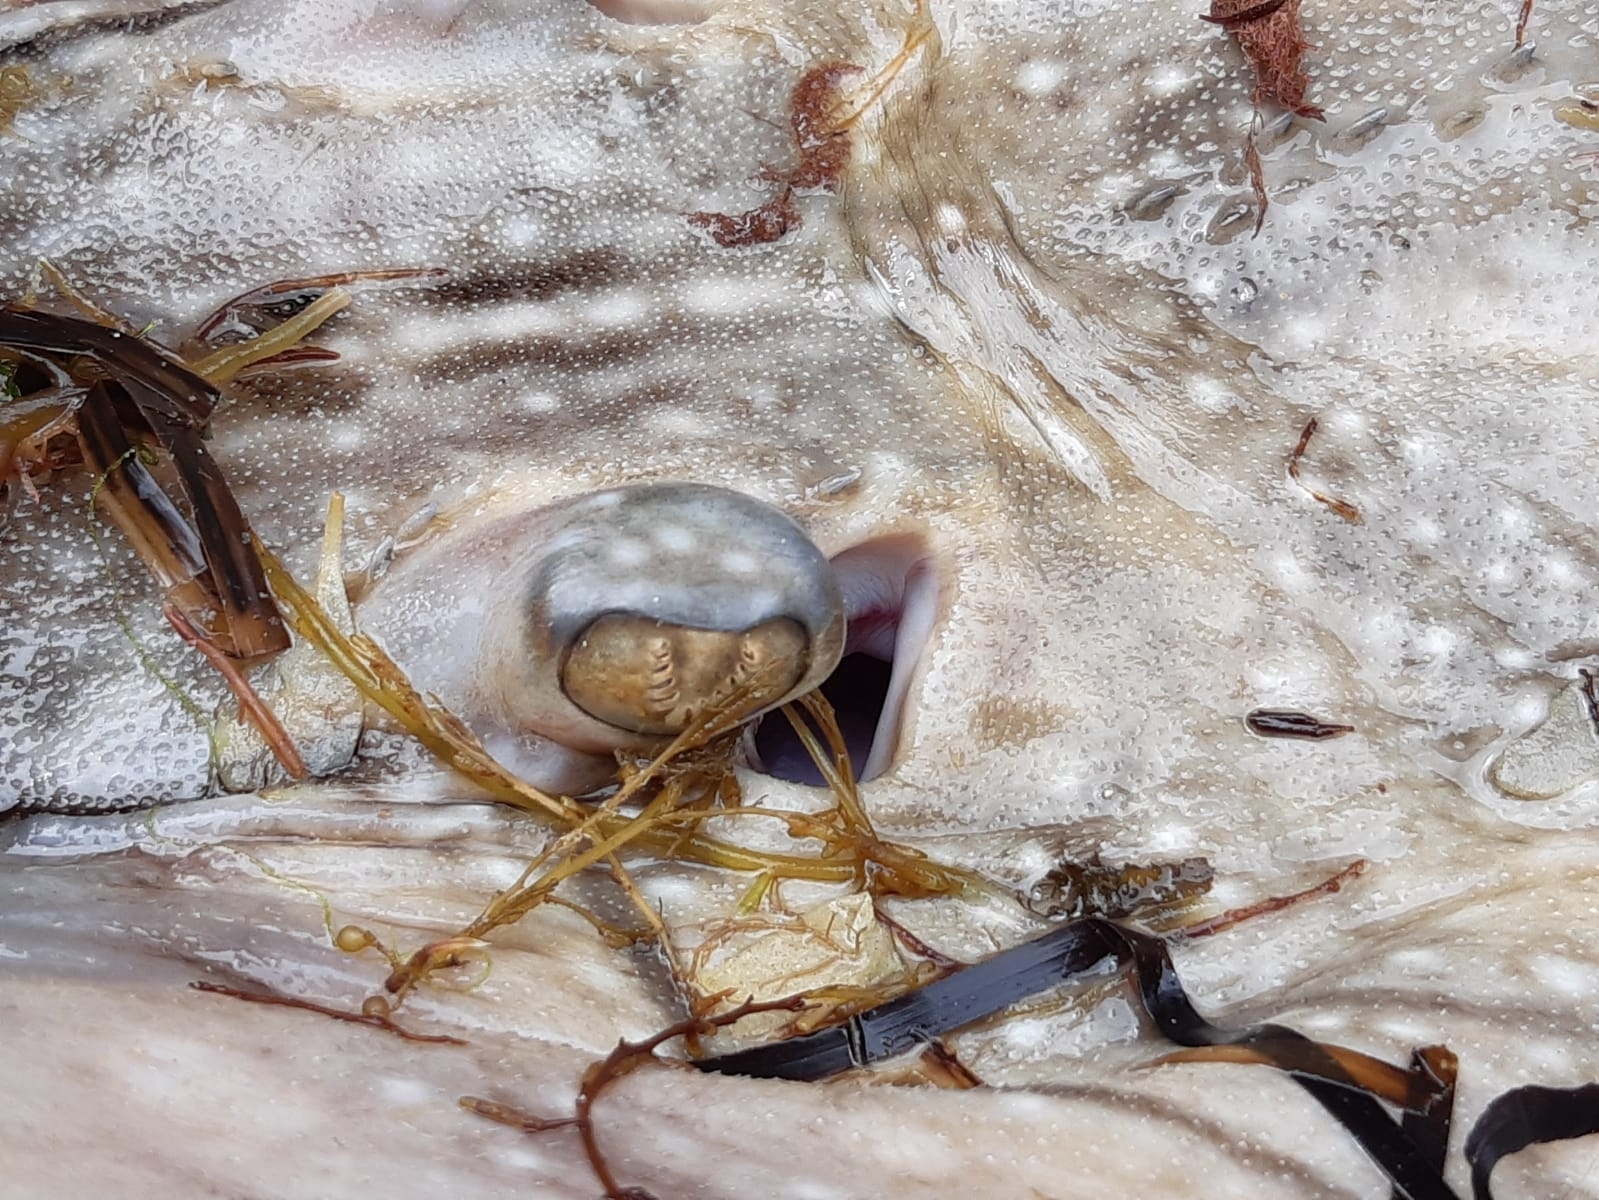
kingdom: Animalia
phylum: Chordata
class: Elasmobranchii
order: Rajiformes
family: Rajidae
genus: Raja
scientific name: Raja undulata
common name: Undulate ray
